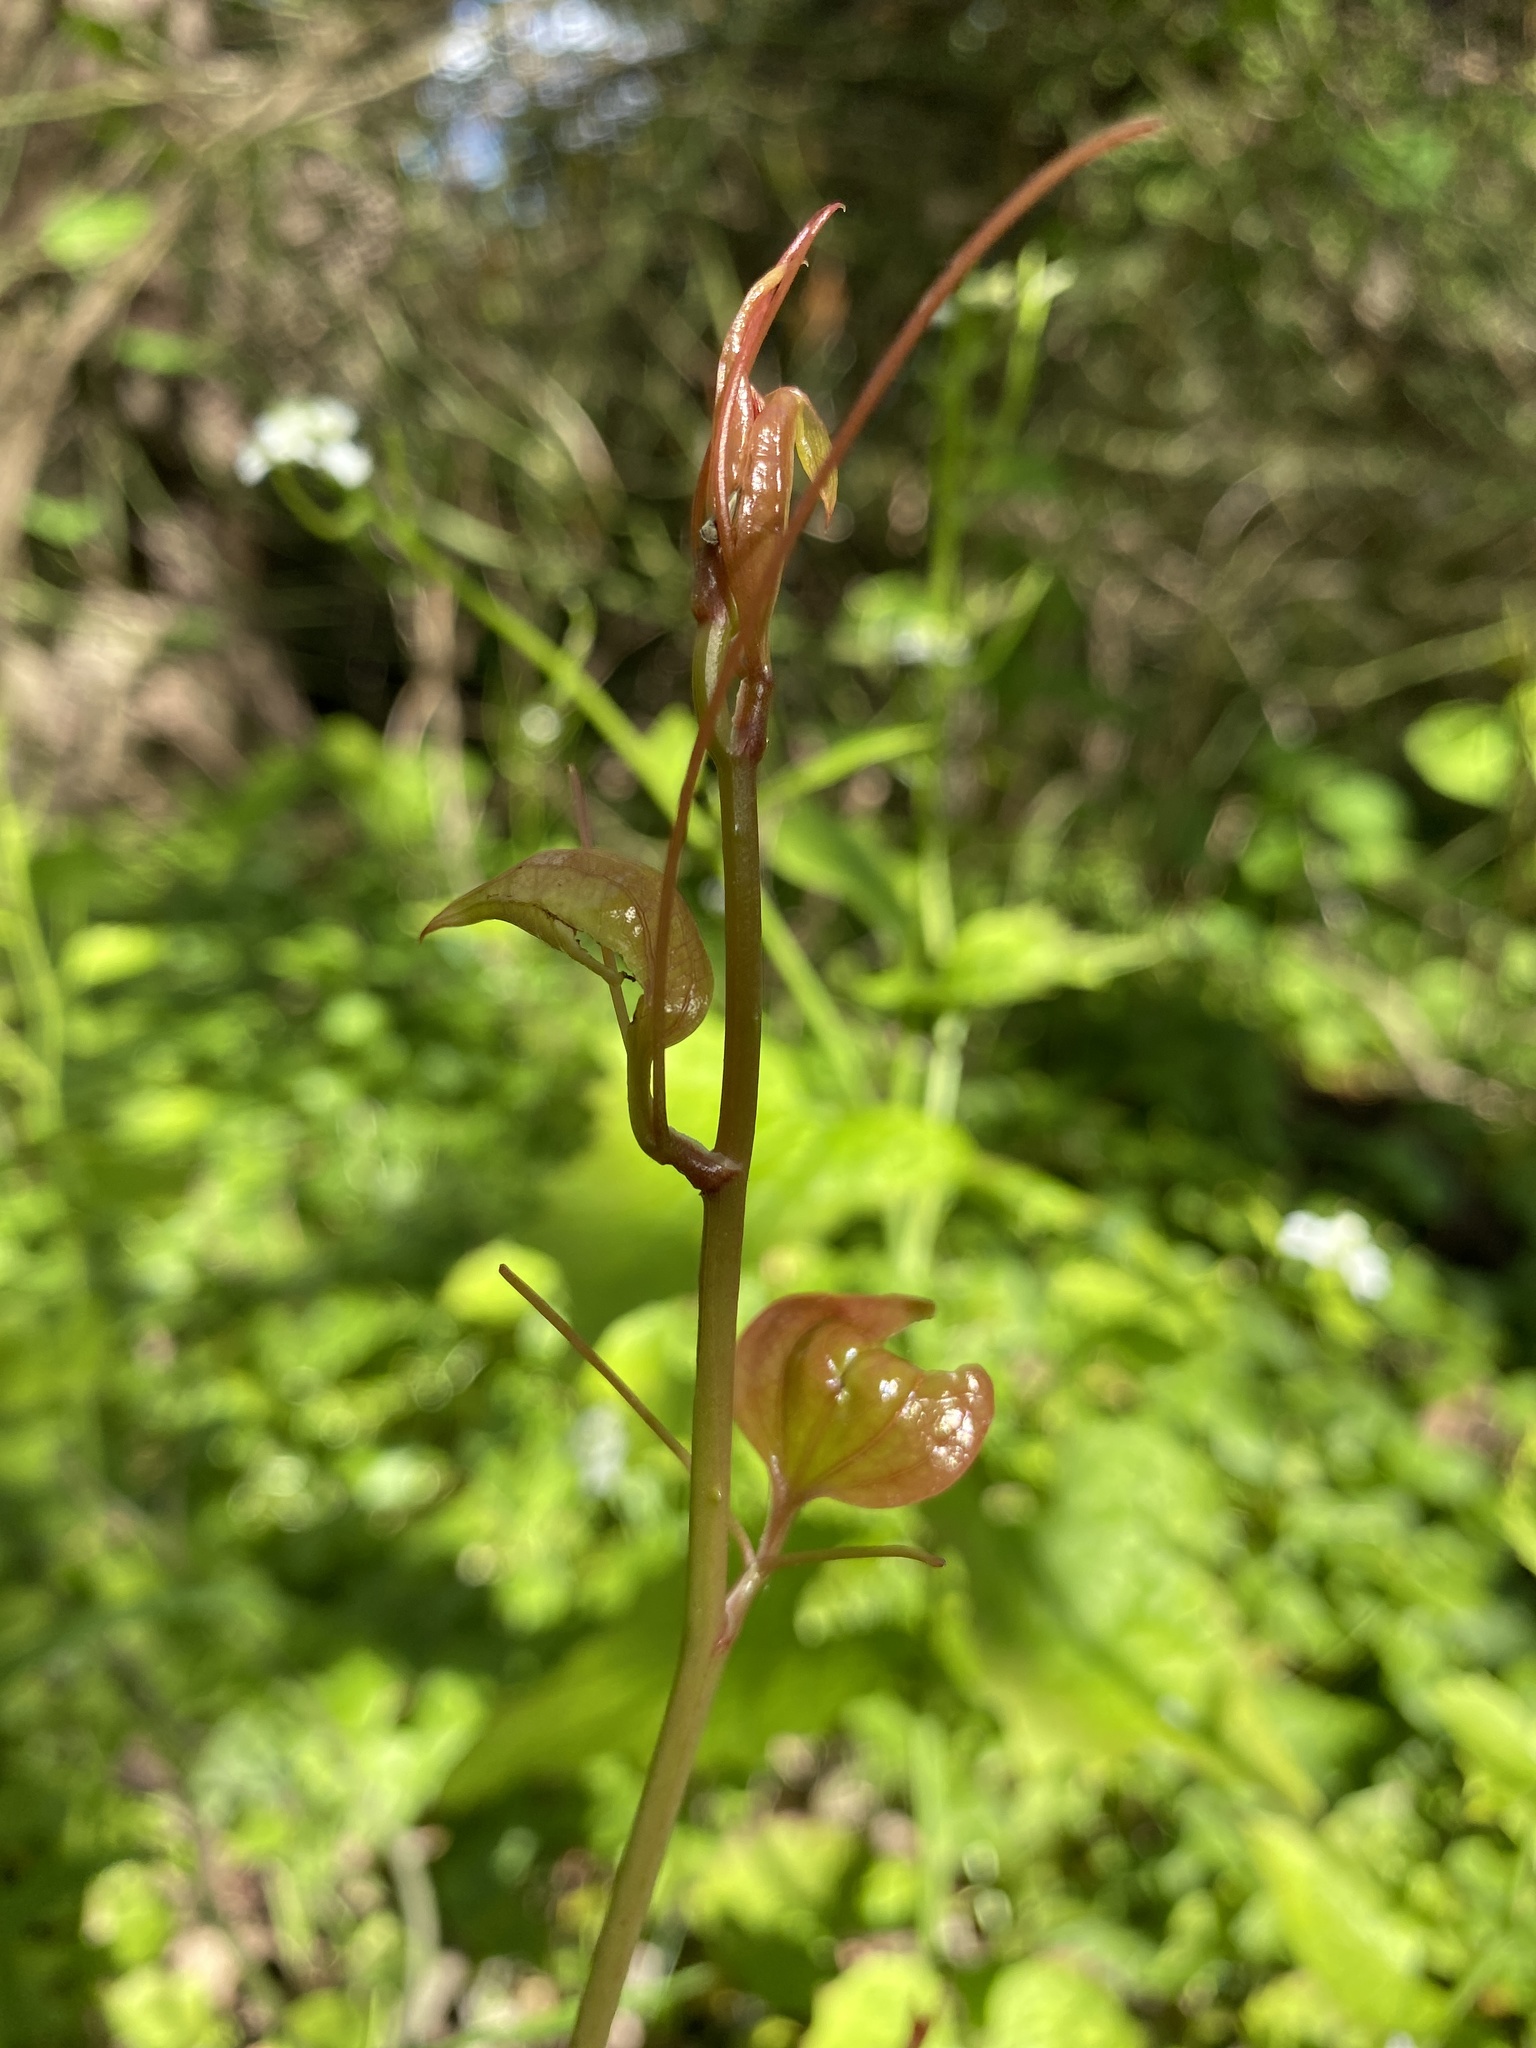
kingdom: Plantae
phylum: Tracheophyta
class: Liliopsida
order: Liliales
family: Smilacaceae
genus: Smilax
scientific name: Smilax rotundifolia
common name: Bullbriar
